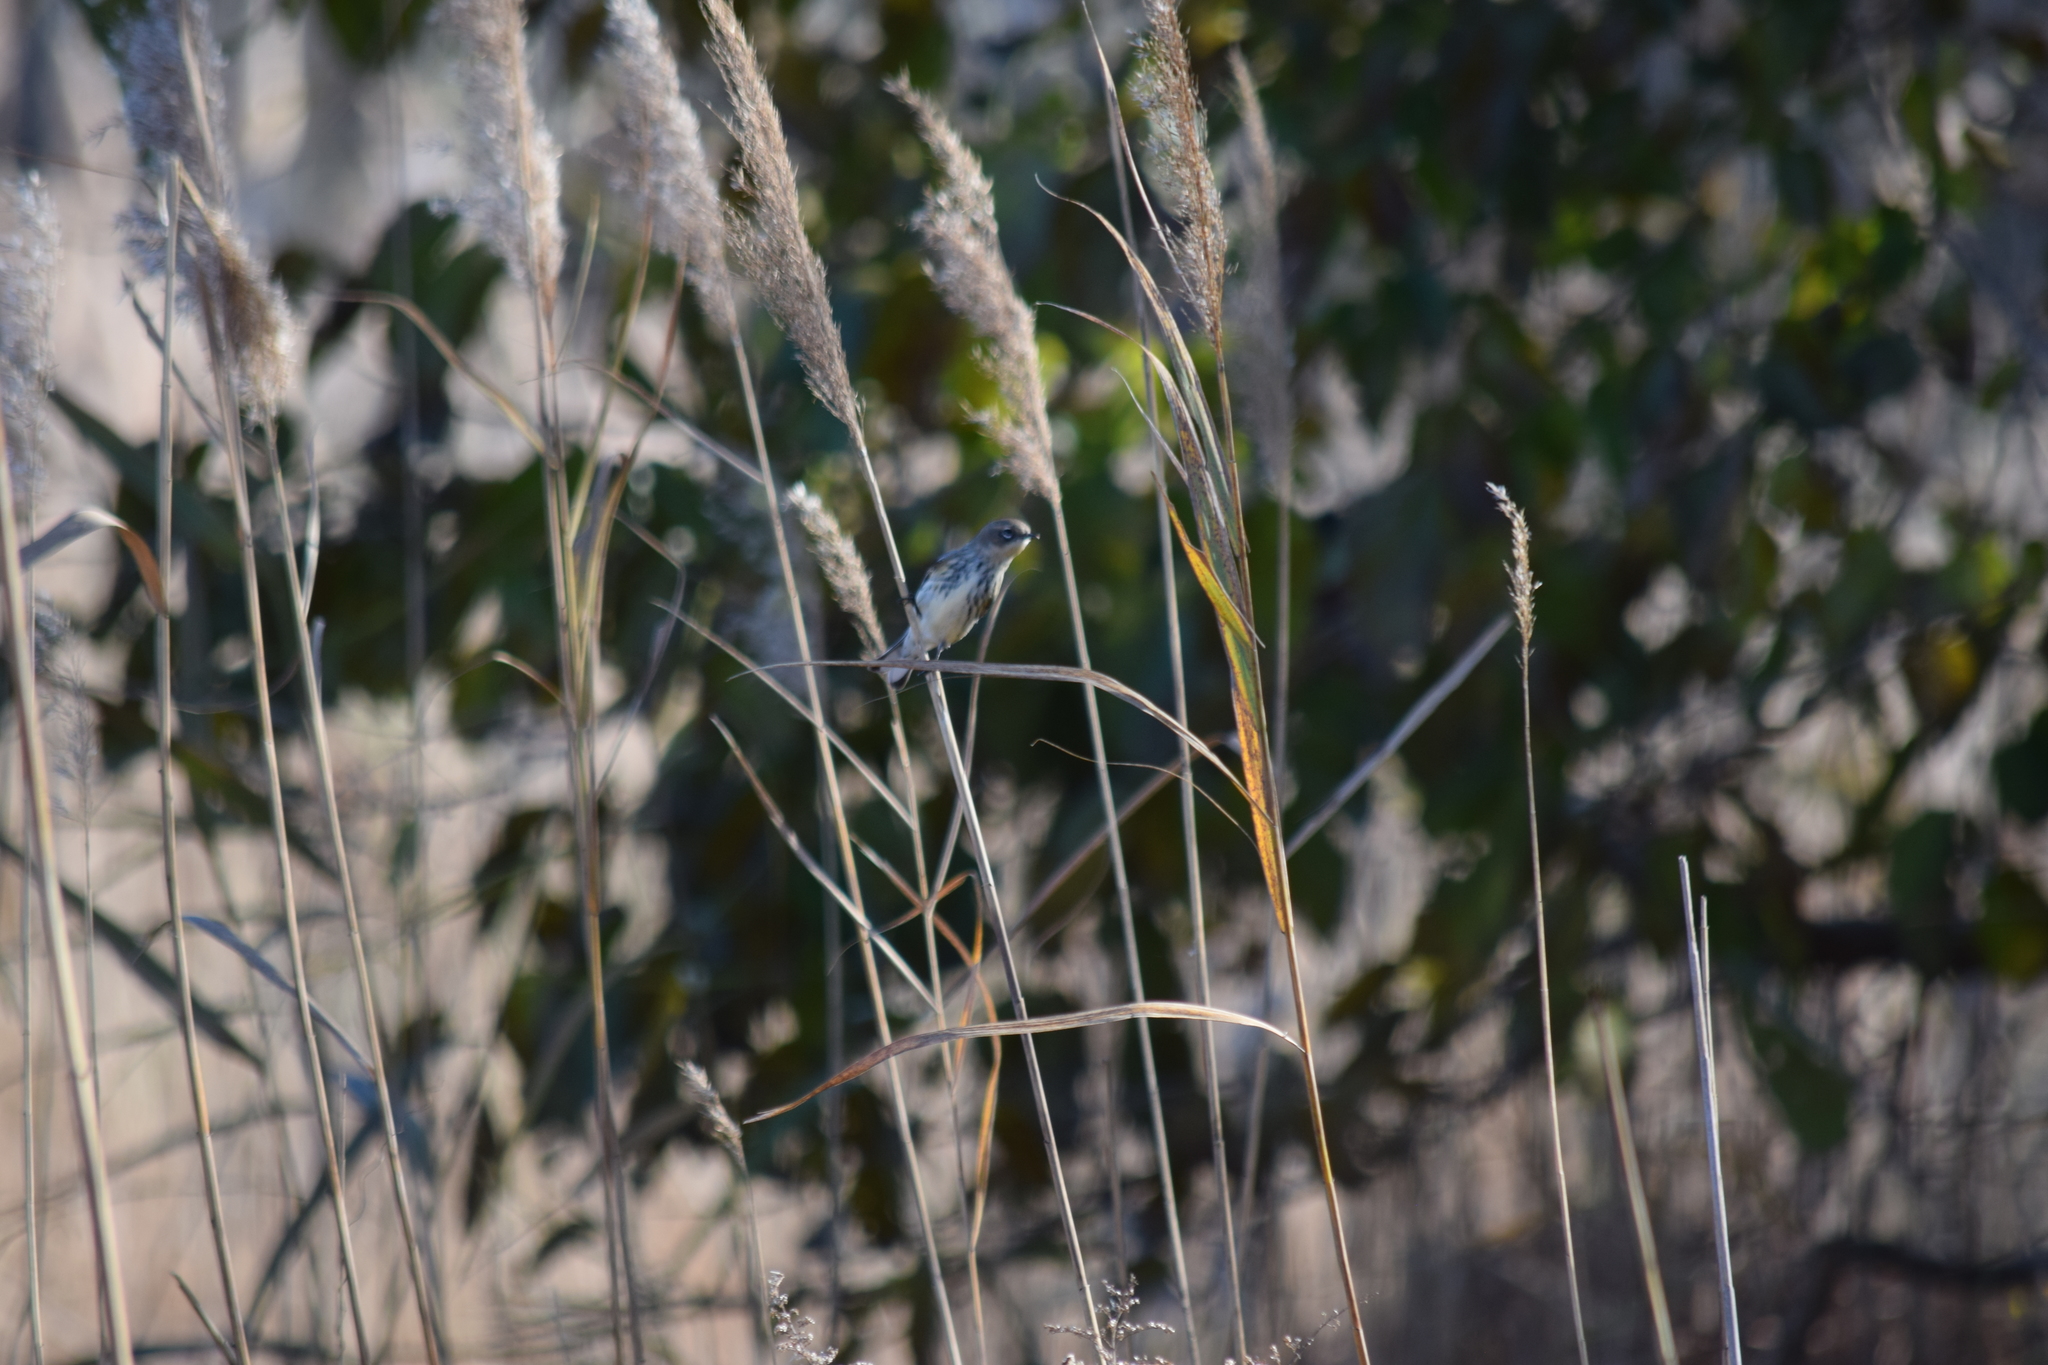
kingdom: Animalia
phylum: Chordata
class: Aves
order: Passeriformes
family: Parulidae
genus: Setophaga
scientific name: Setophaga coronata
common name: Myrtle warbler
